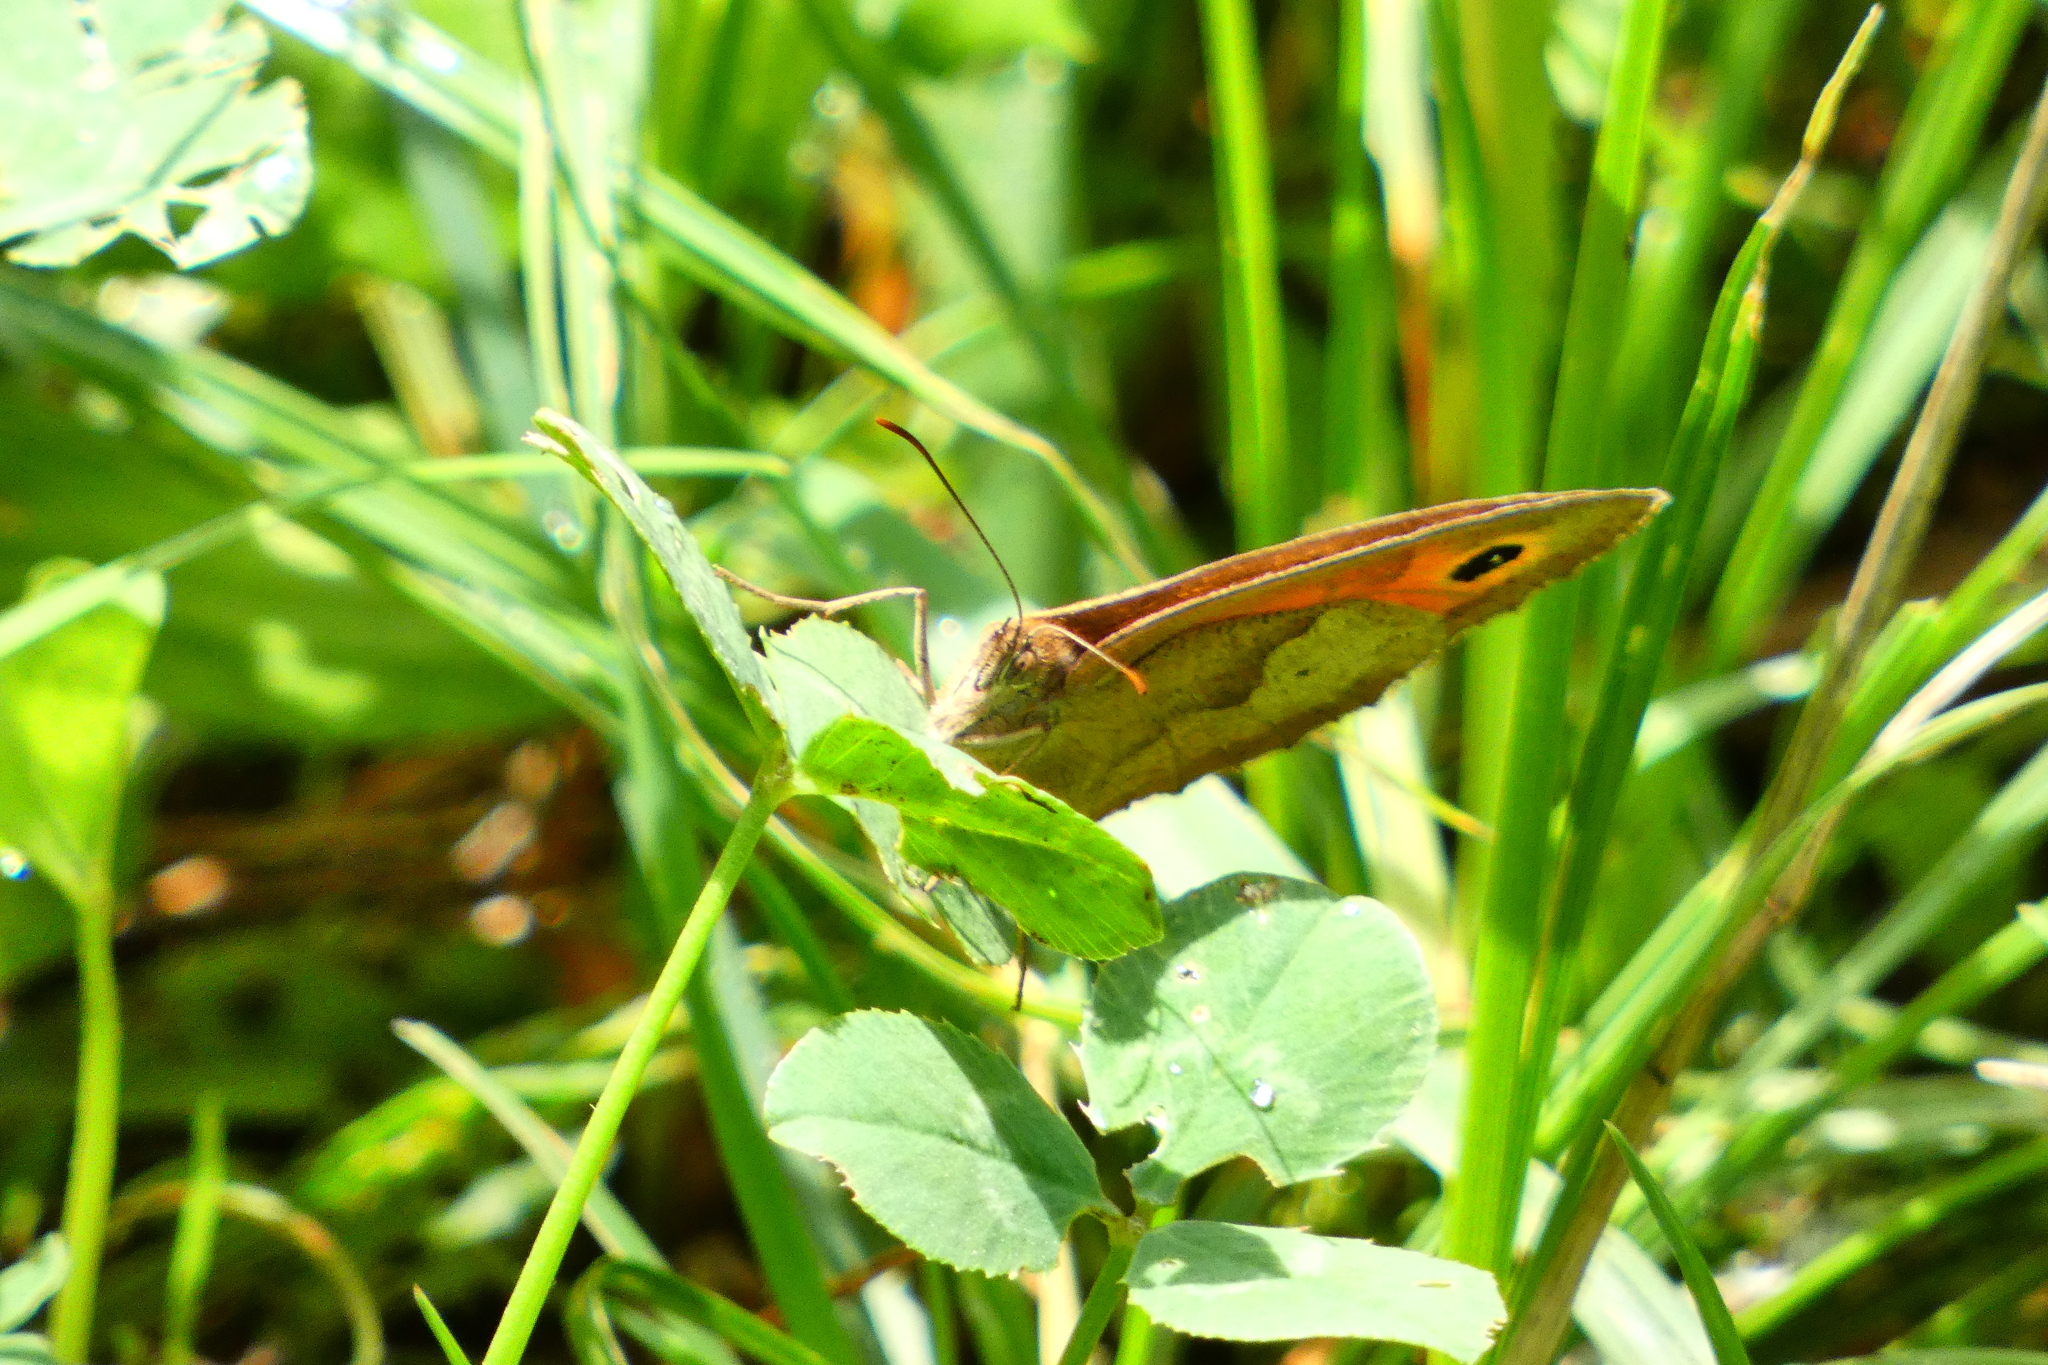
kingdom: Animalia
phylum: Arthropoda
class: Insecta
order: Lepidoptera
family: Nymphalidae
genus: Maniola
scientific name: Maniola jurtina
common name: Meadow brown
